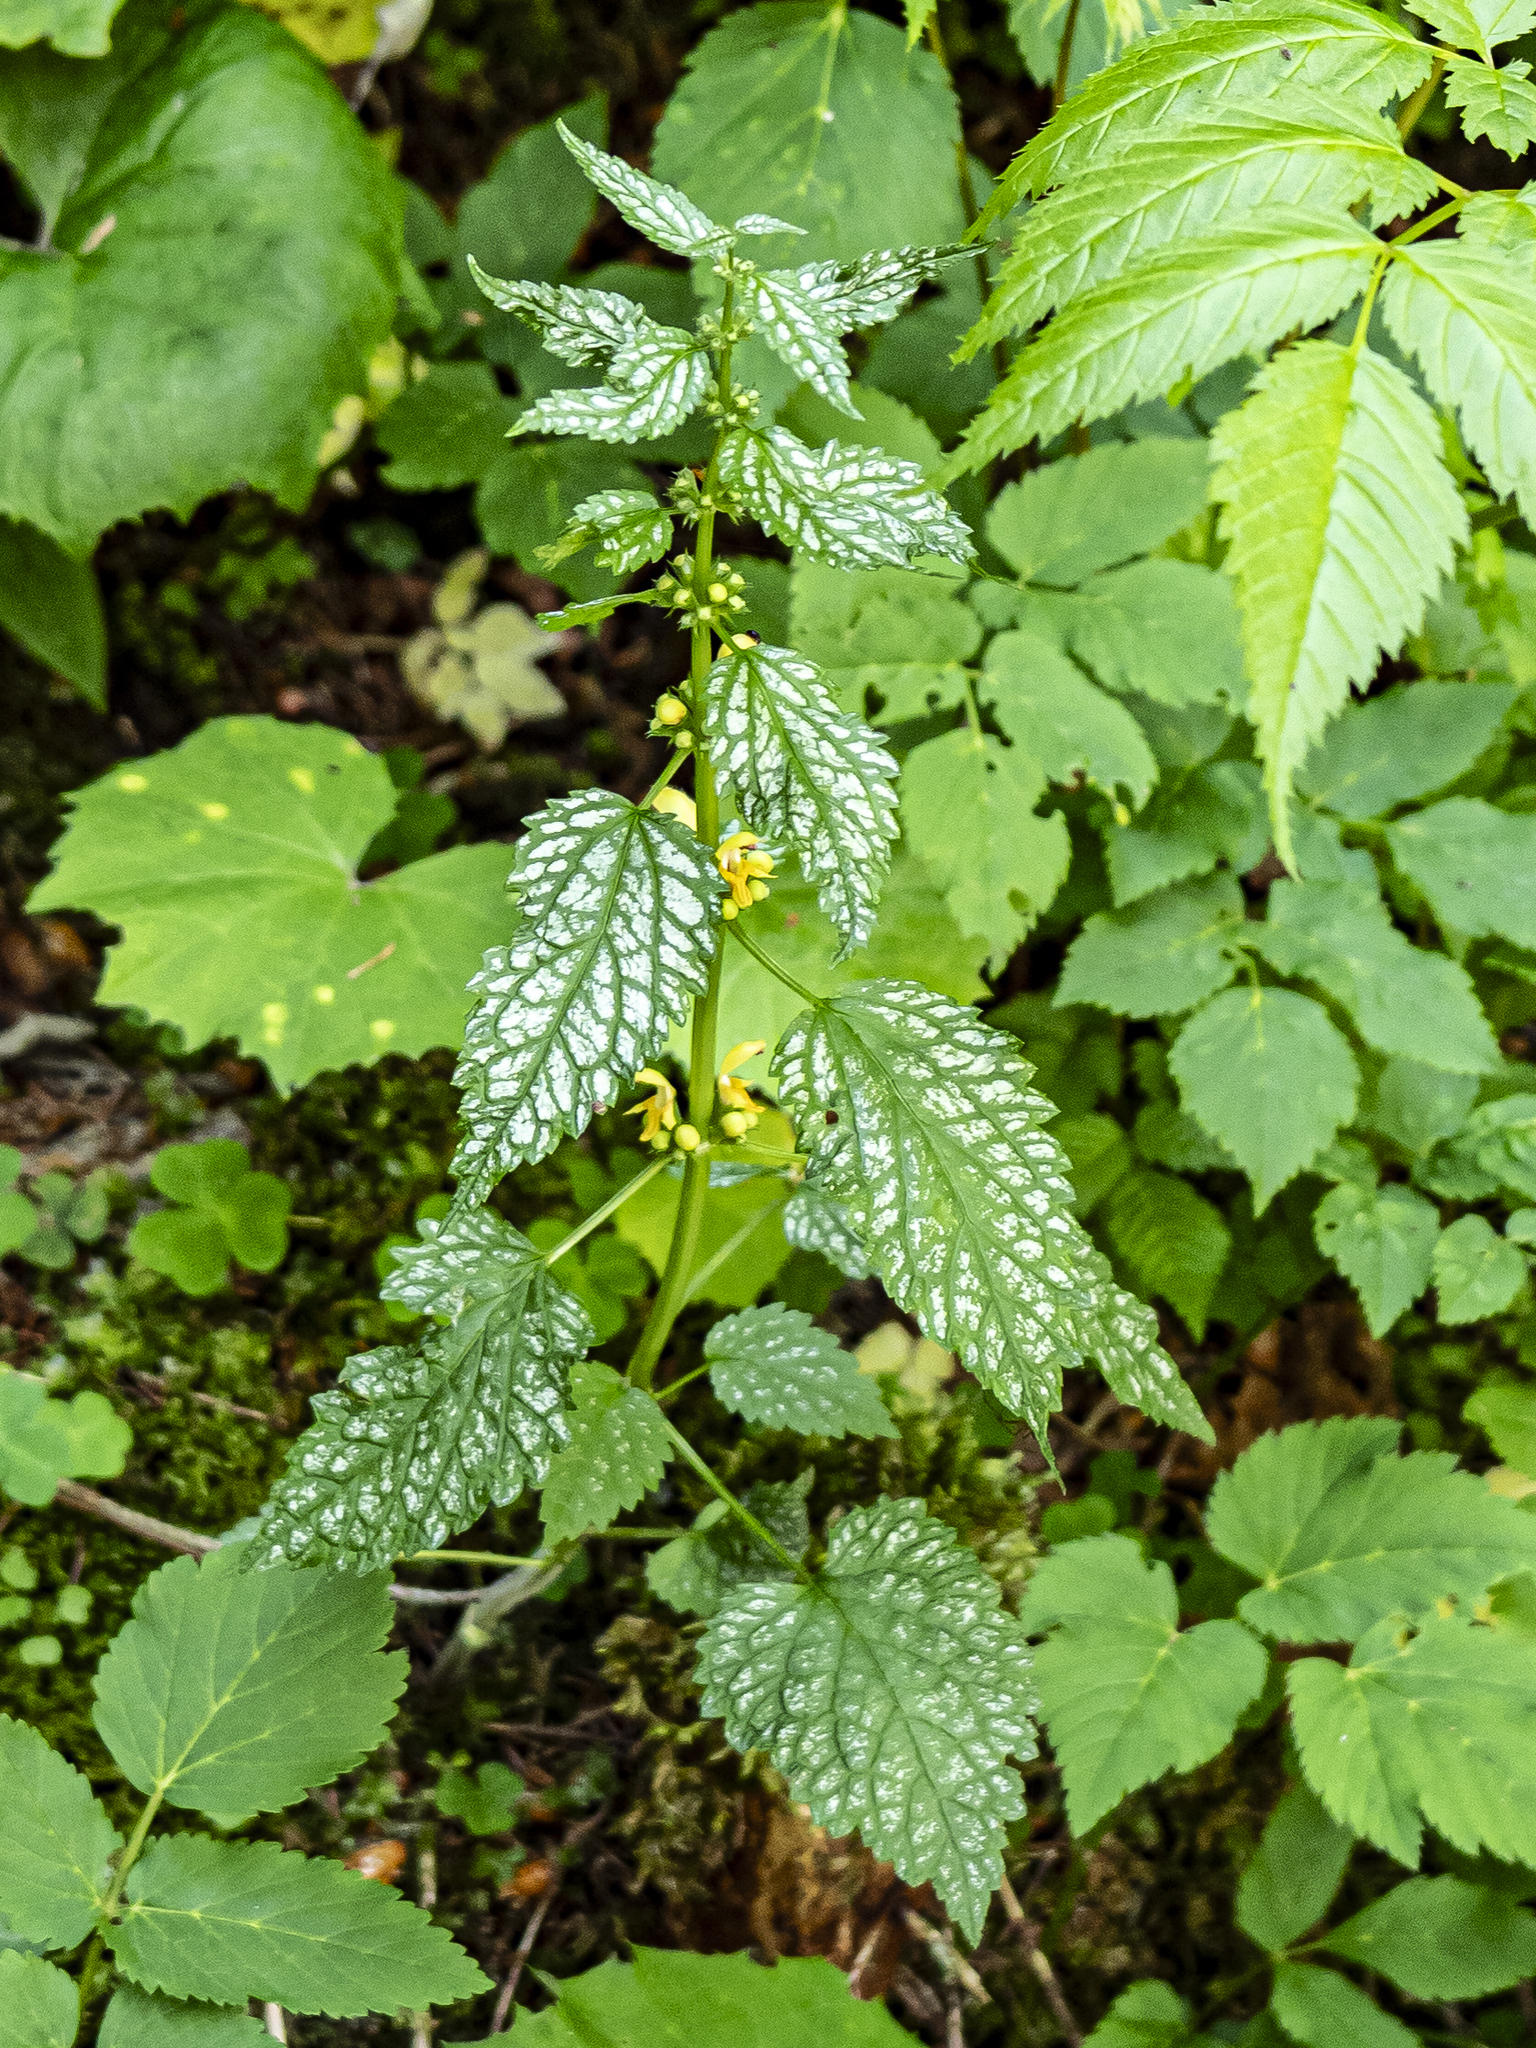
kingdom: Plantae
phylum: Tracheophyta
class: Magnoliopsida
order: Lamiales
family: Lamiaceae
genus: Lamium
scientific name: Lamium galeobdolon
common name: Yellow archangel
